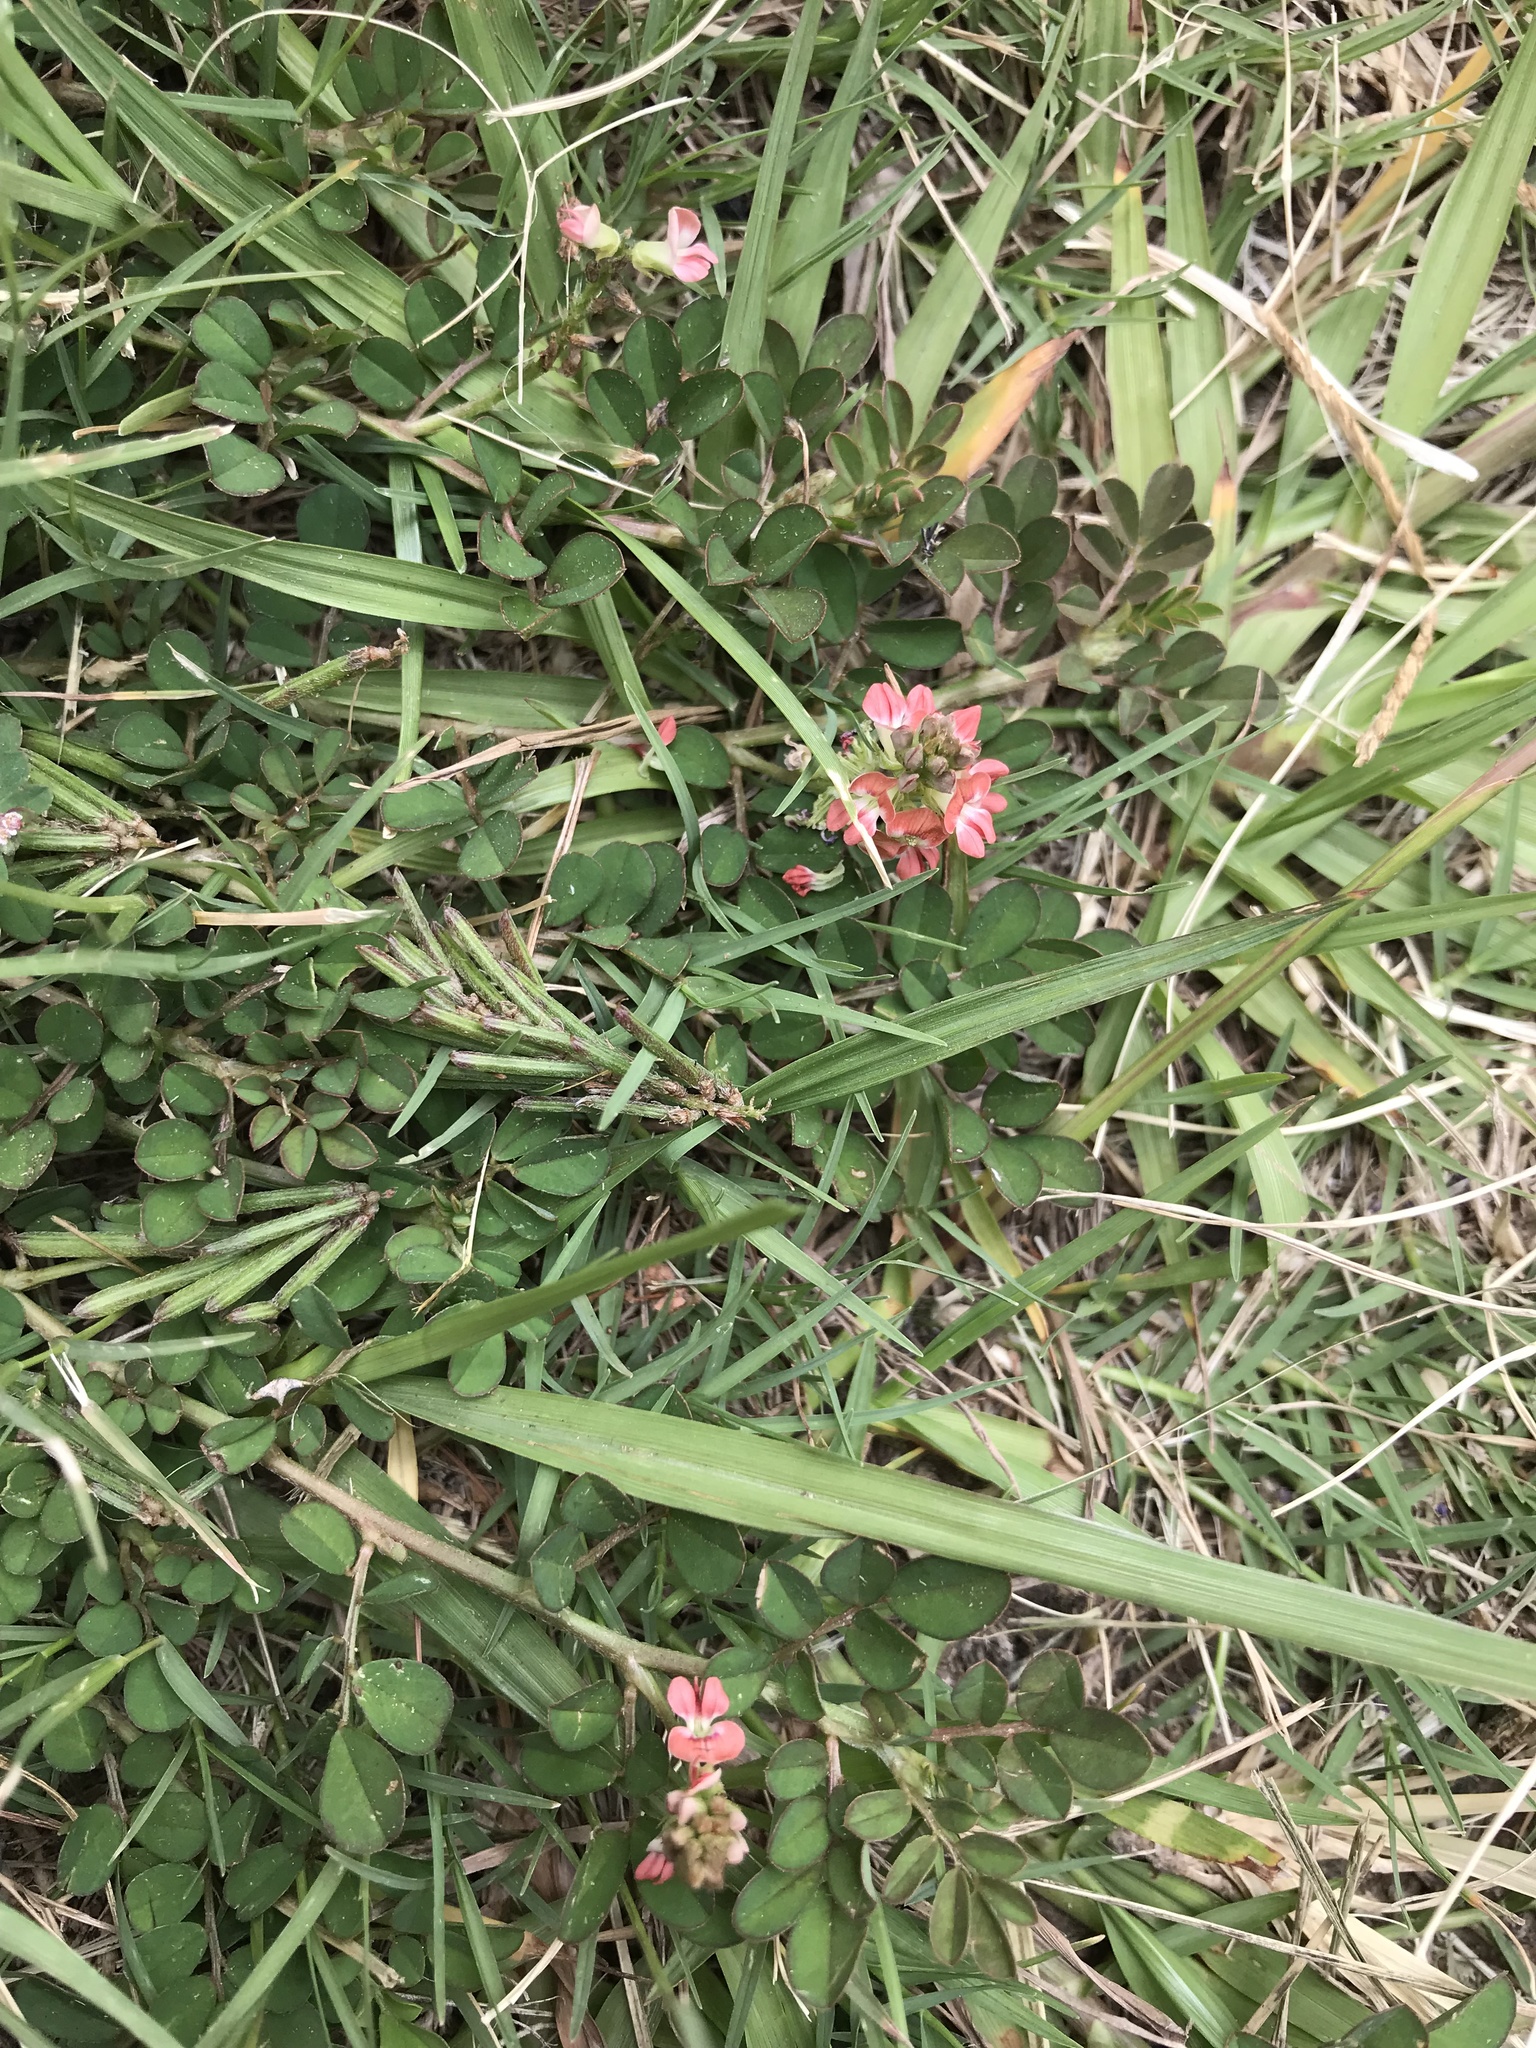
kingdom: Plantae
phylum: Tracheophyta
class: Magnoliopsida
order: Fabales
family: Fabaceae
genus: Indigofera
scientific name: Indigofera spicata
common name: Creeping indigo
